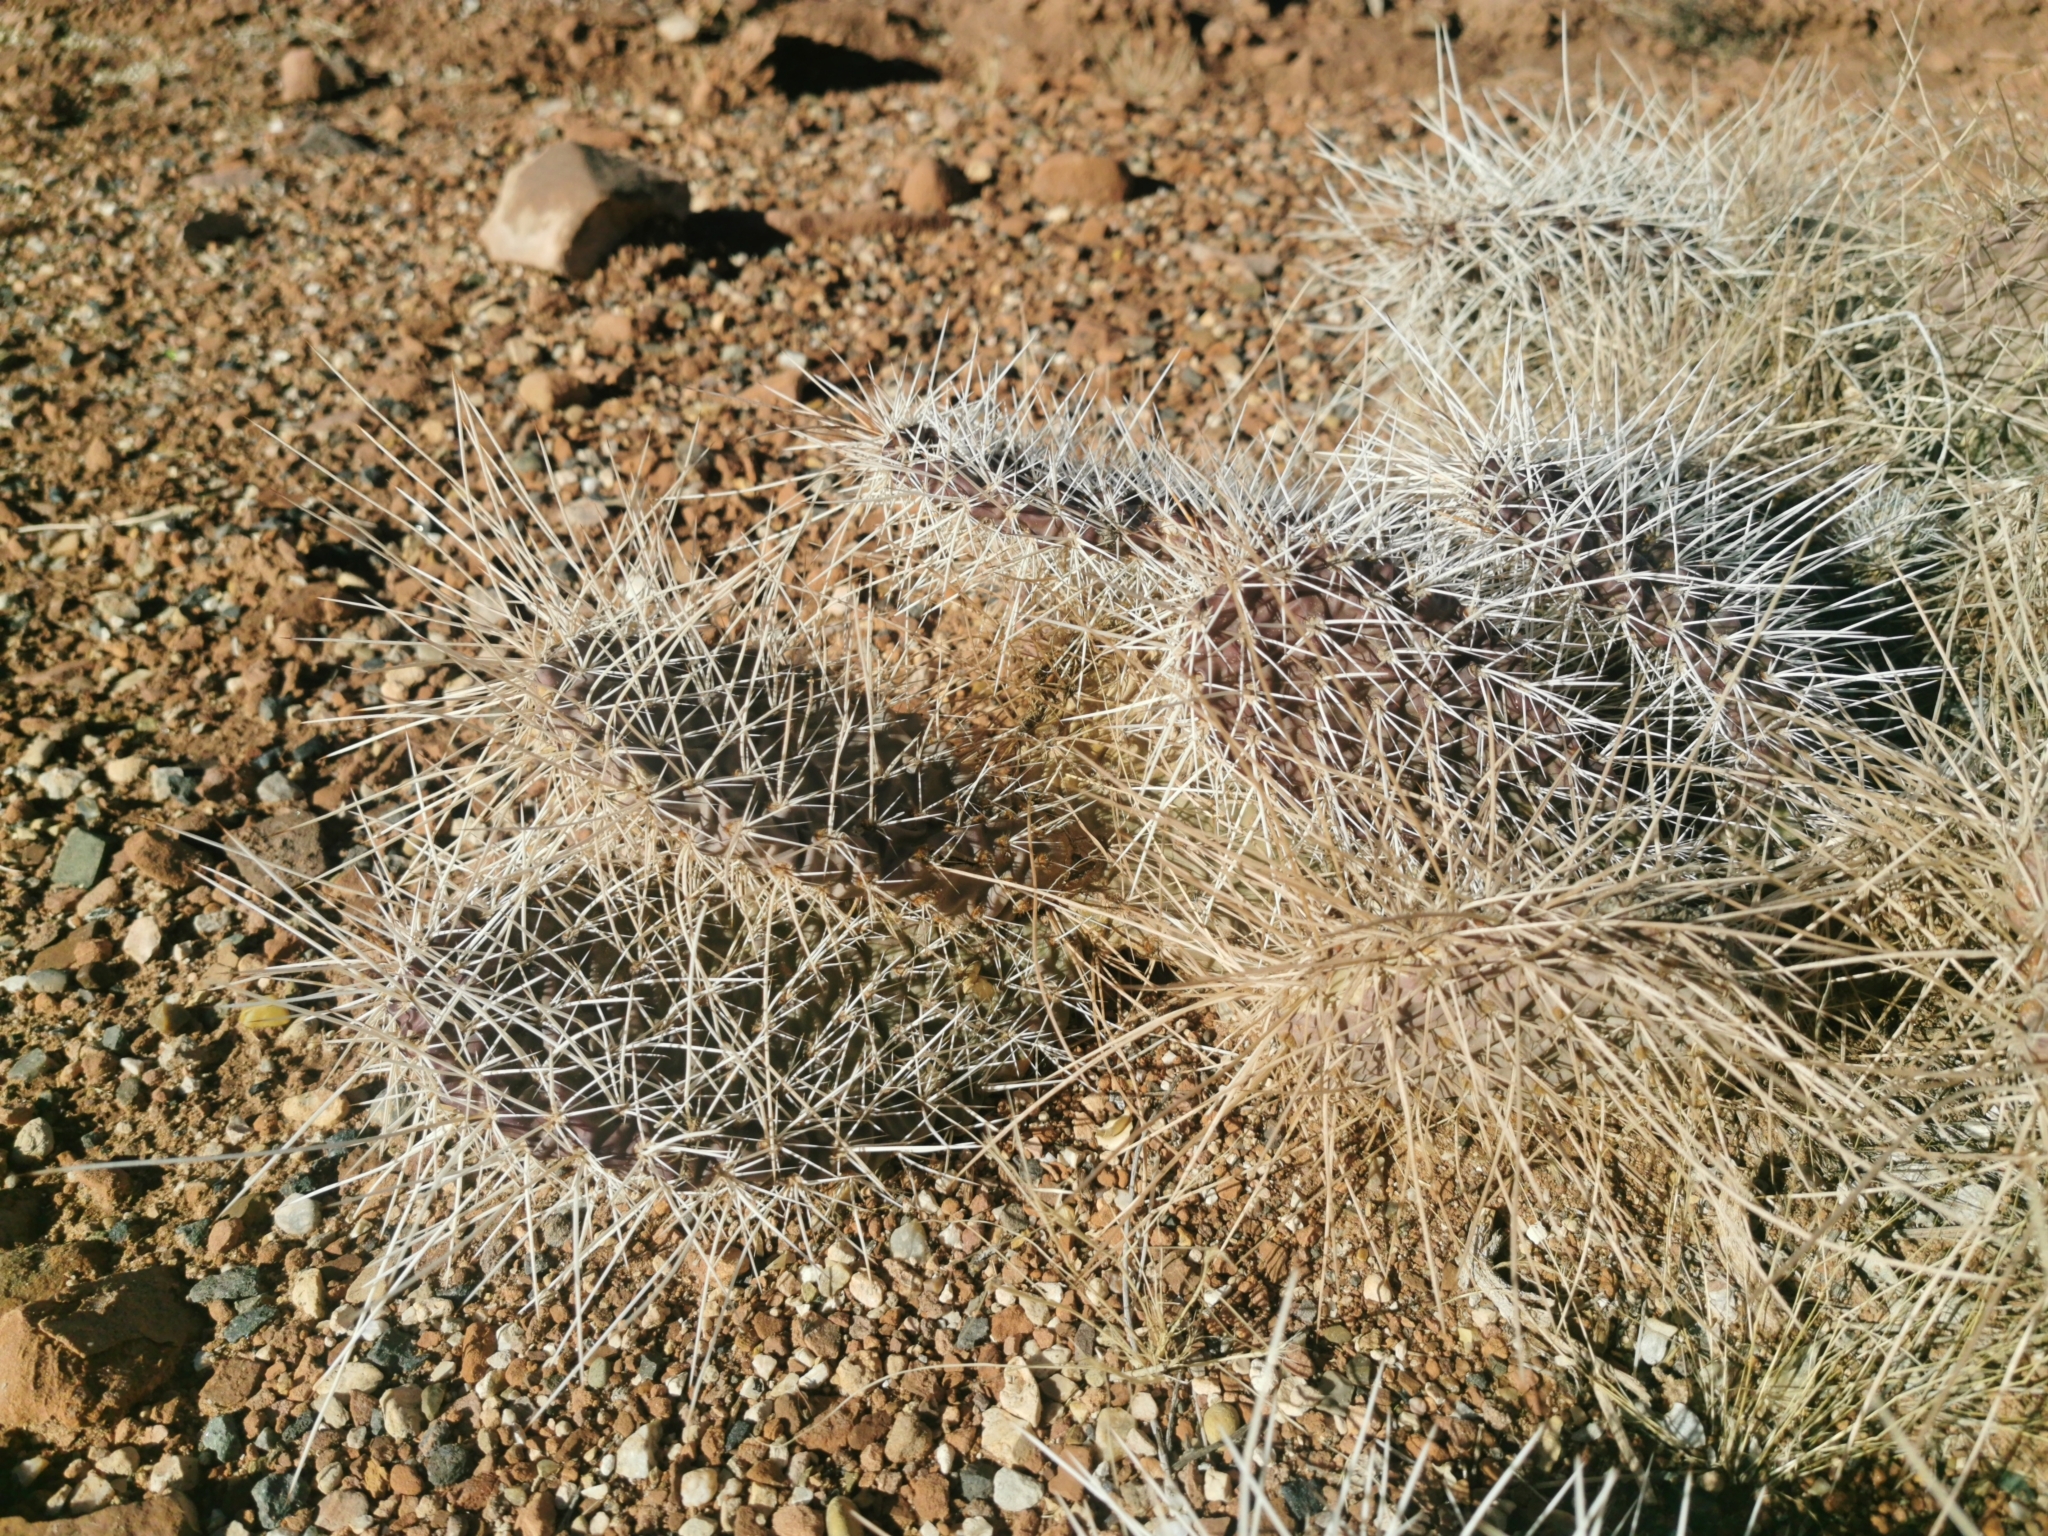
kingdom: Plantae
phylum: Tracheophyta
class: Magnoliopsida
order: Caryophyllales
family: Cactaceae
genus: Opuntia
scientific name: Opuntia polyacantha
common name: Plains prickly-pear
